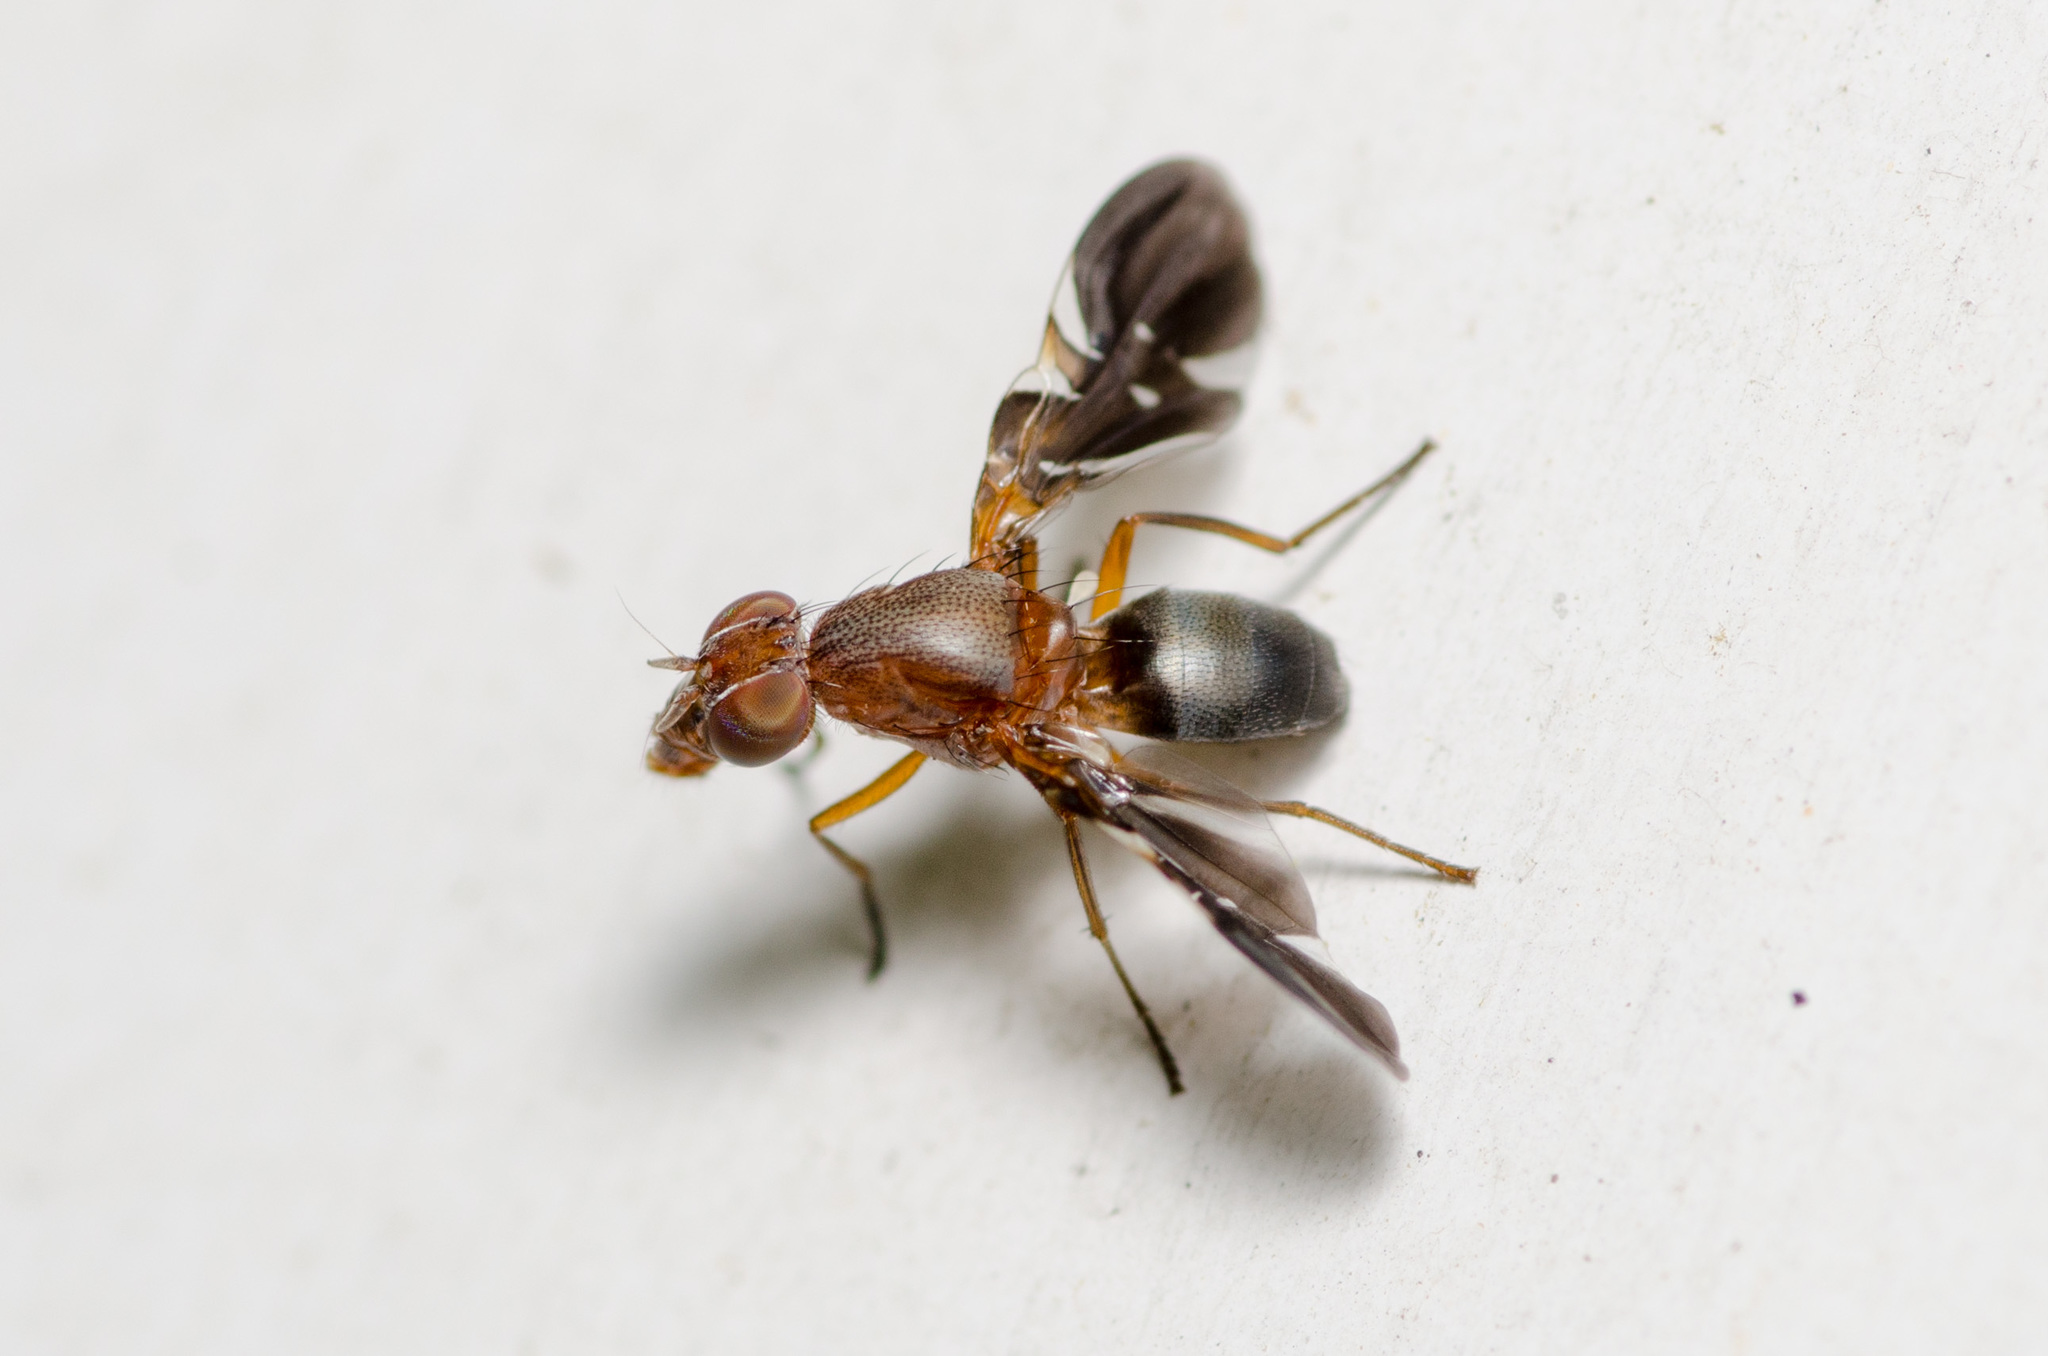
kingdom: Animalia
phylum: Arthropoda
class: Insecta
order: Diptera
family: Ulidiidae
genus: Delphinia
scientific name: Delphinia picta
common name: Common picture-winged fly
